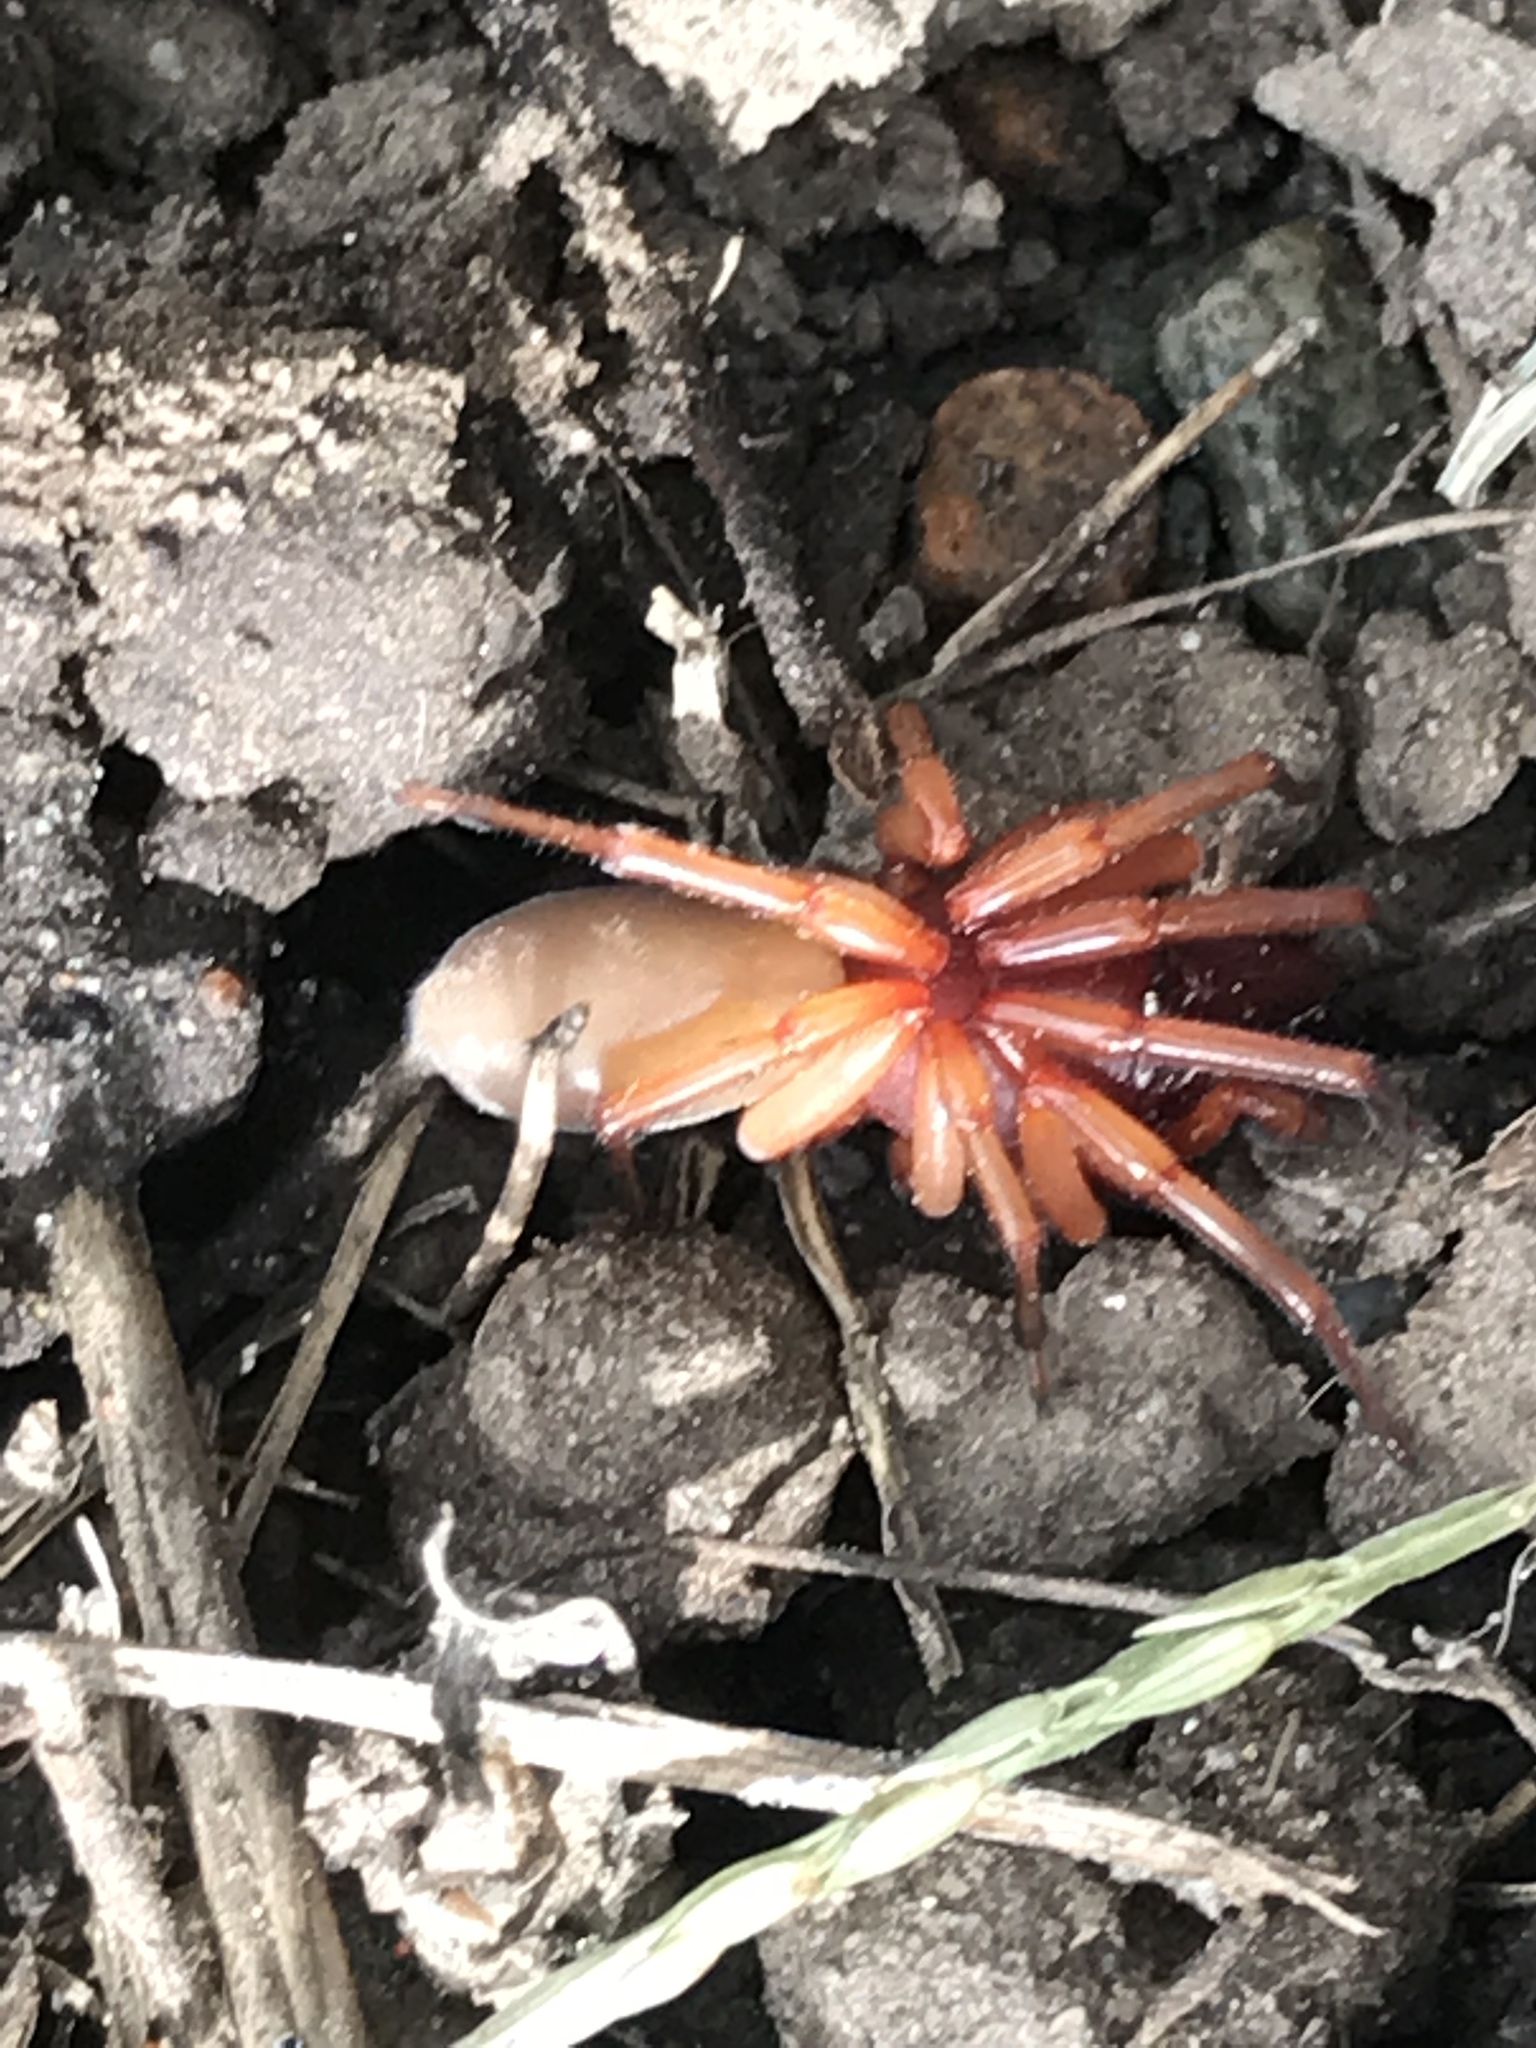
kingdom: Animalia
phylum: Arthropoda
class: Arachnida
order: Araneae
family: Dysderidae
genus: Dysdera
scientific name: Dysdera crocata
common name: Woodlouse spider
